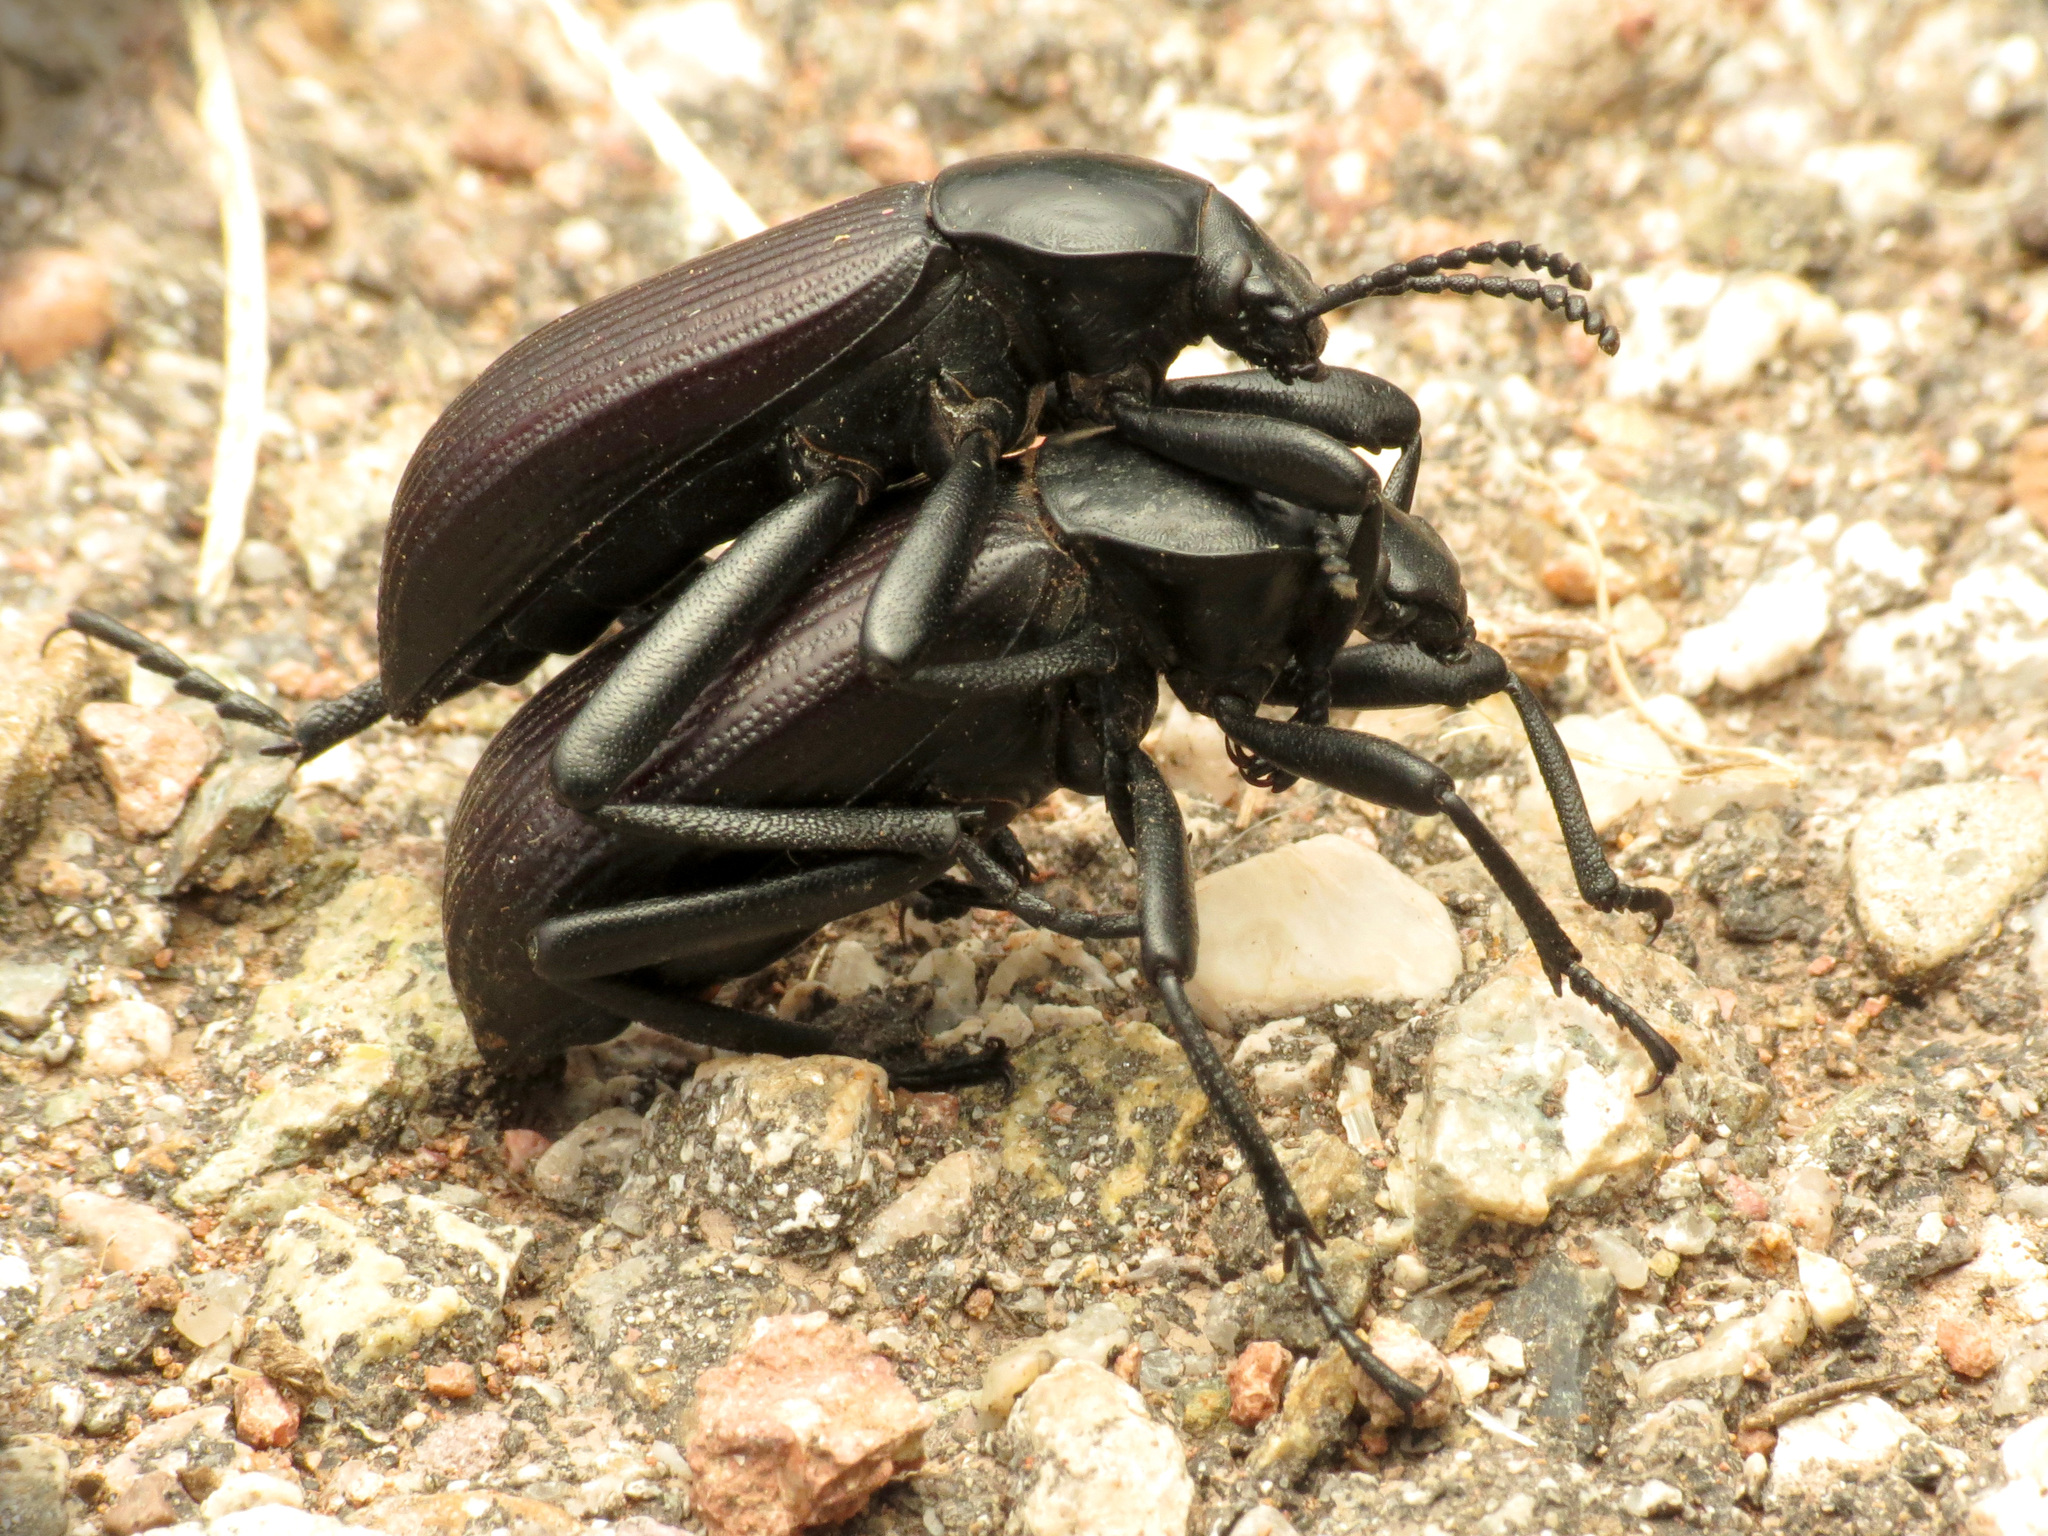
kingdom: Animalia
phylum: Arthropoda
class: Insecta
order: Coleoptera
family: Tenebrionidae
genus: Eleodes
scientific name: Eleodes obscura
